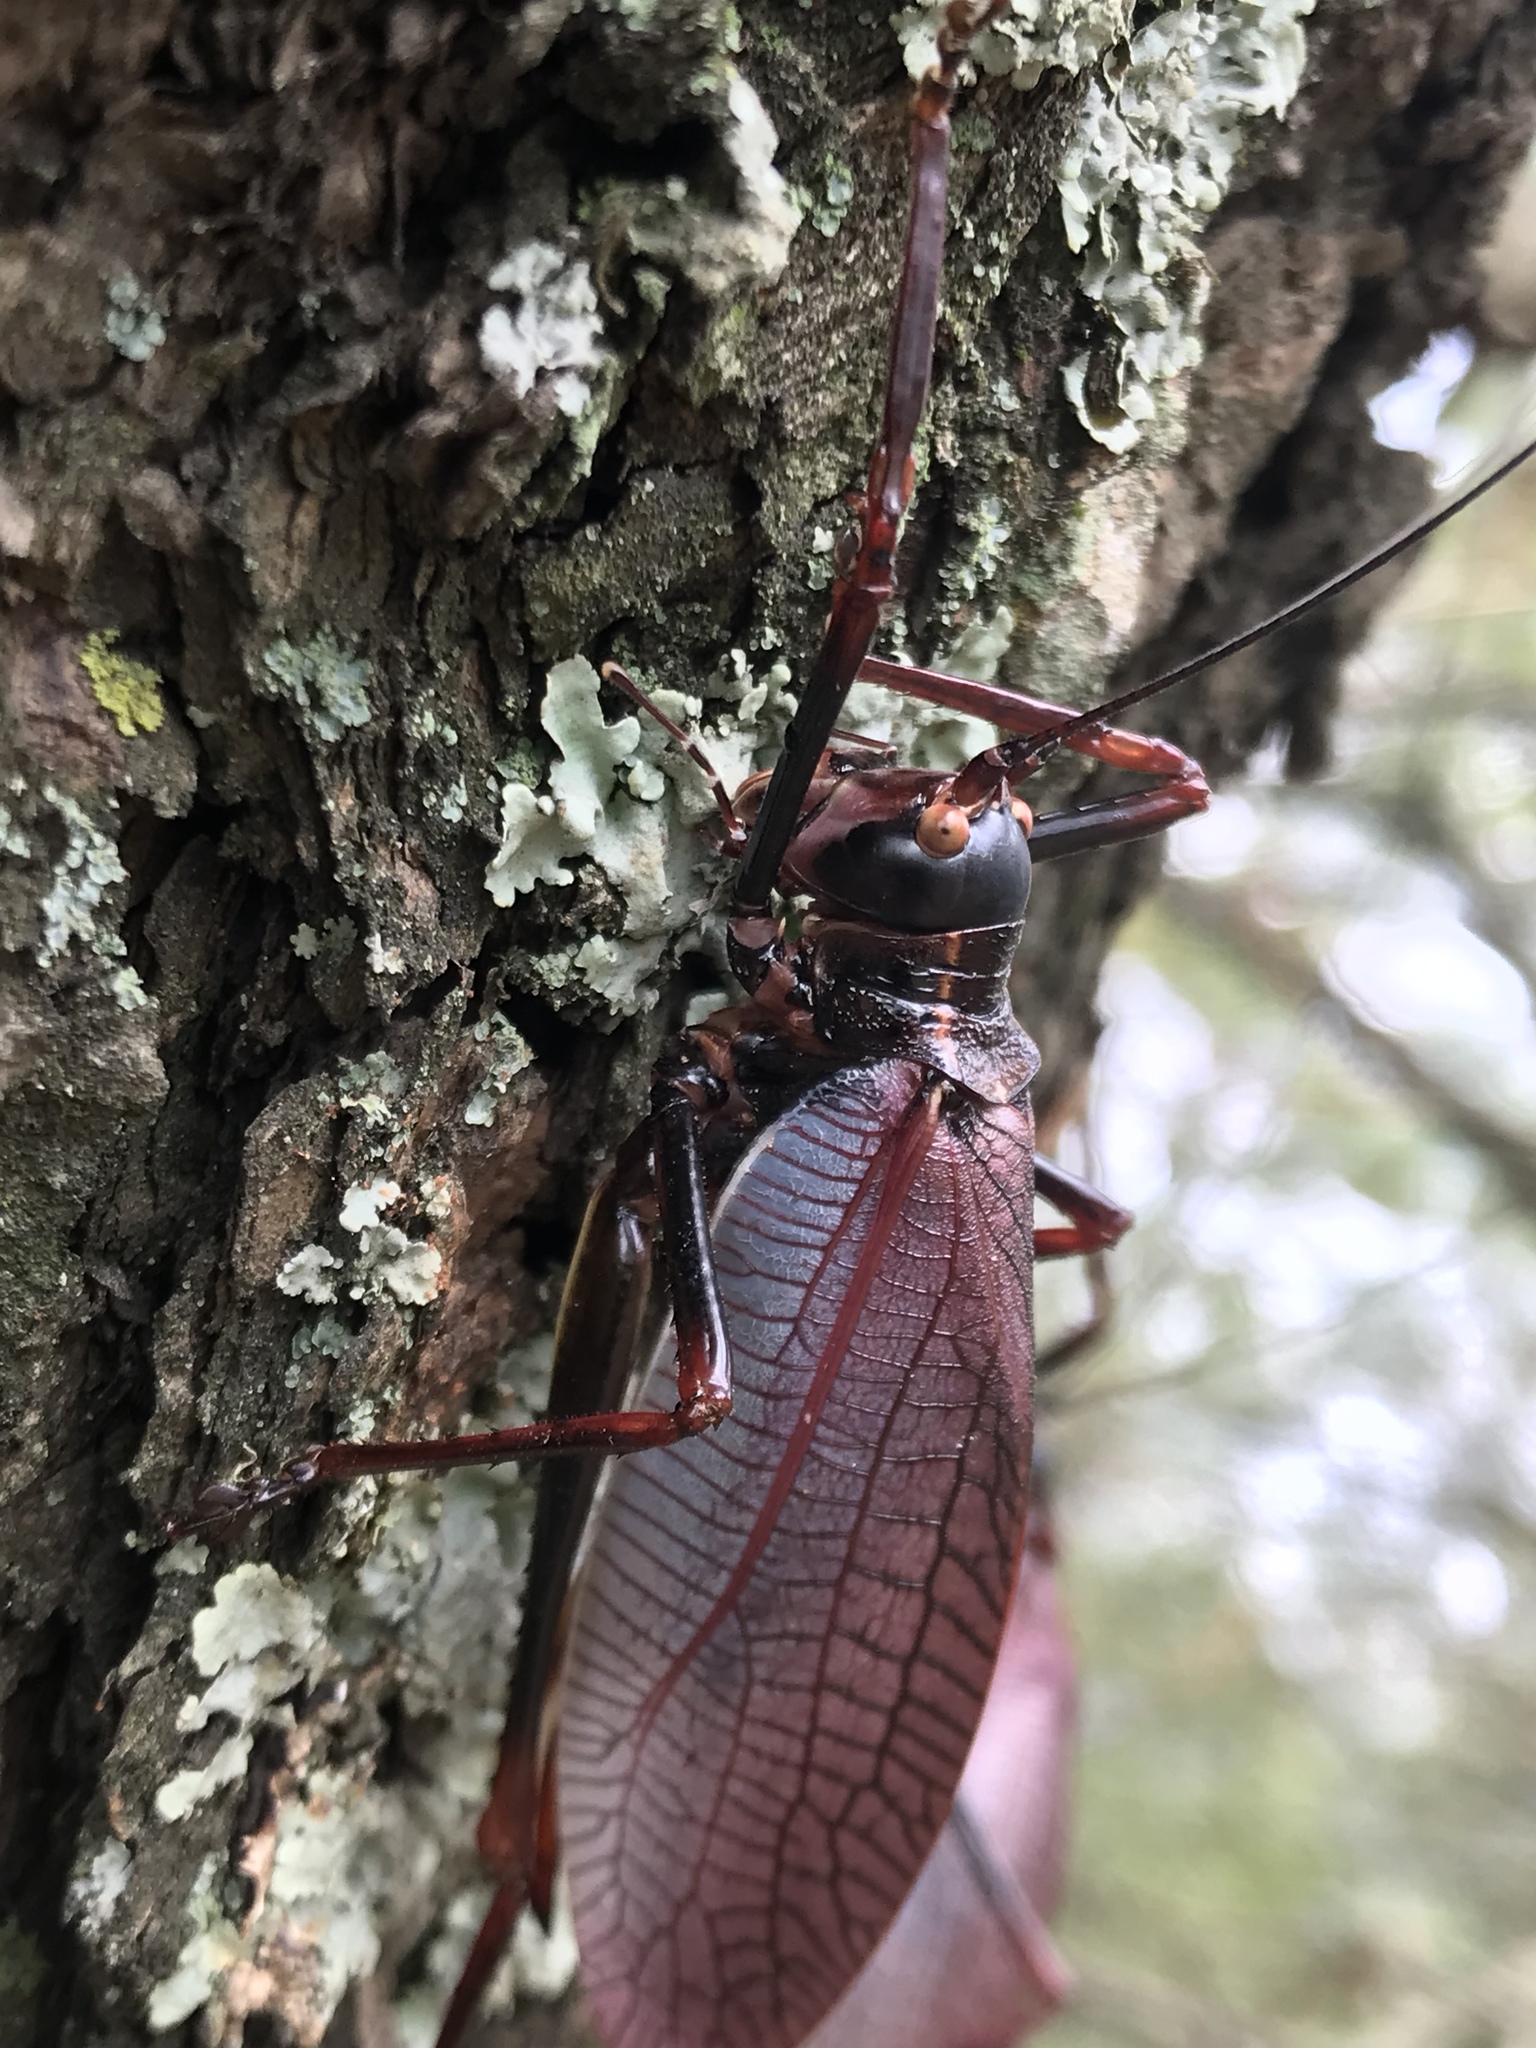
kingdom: Animalia
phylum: Arthropoda
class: Insecta
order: Orthoptera
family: Tettigoniidae
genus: Pterophylla
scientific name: Pterophylla beltrani
